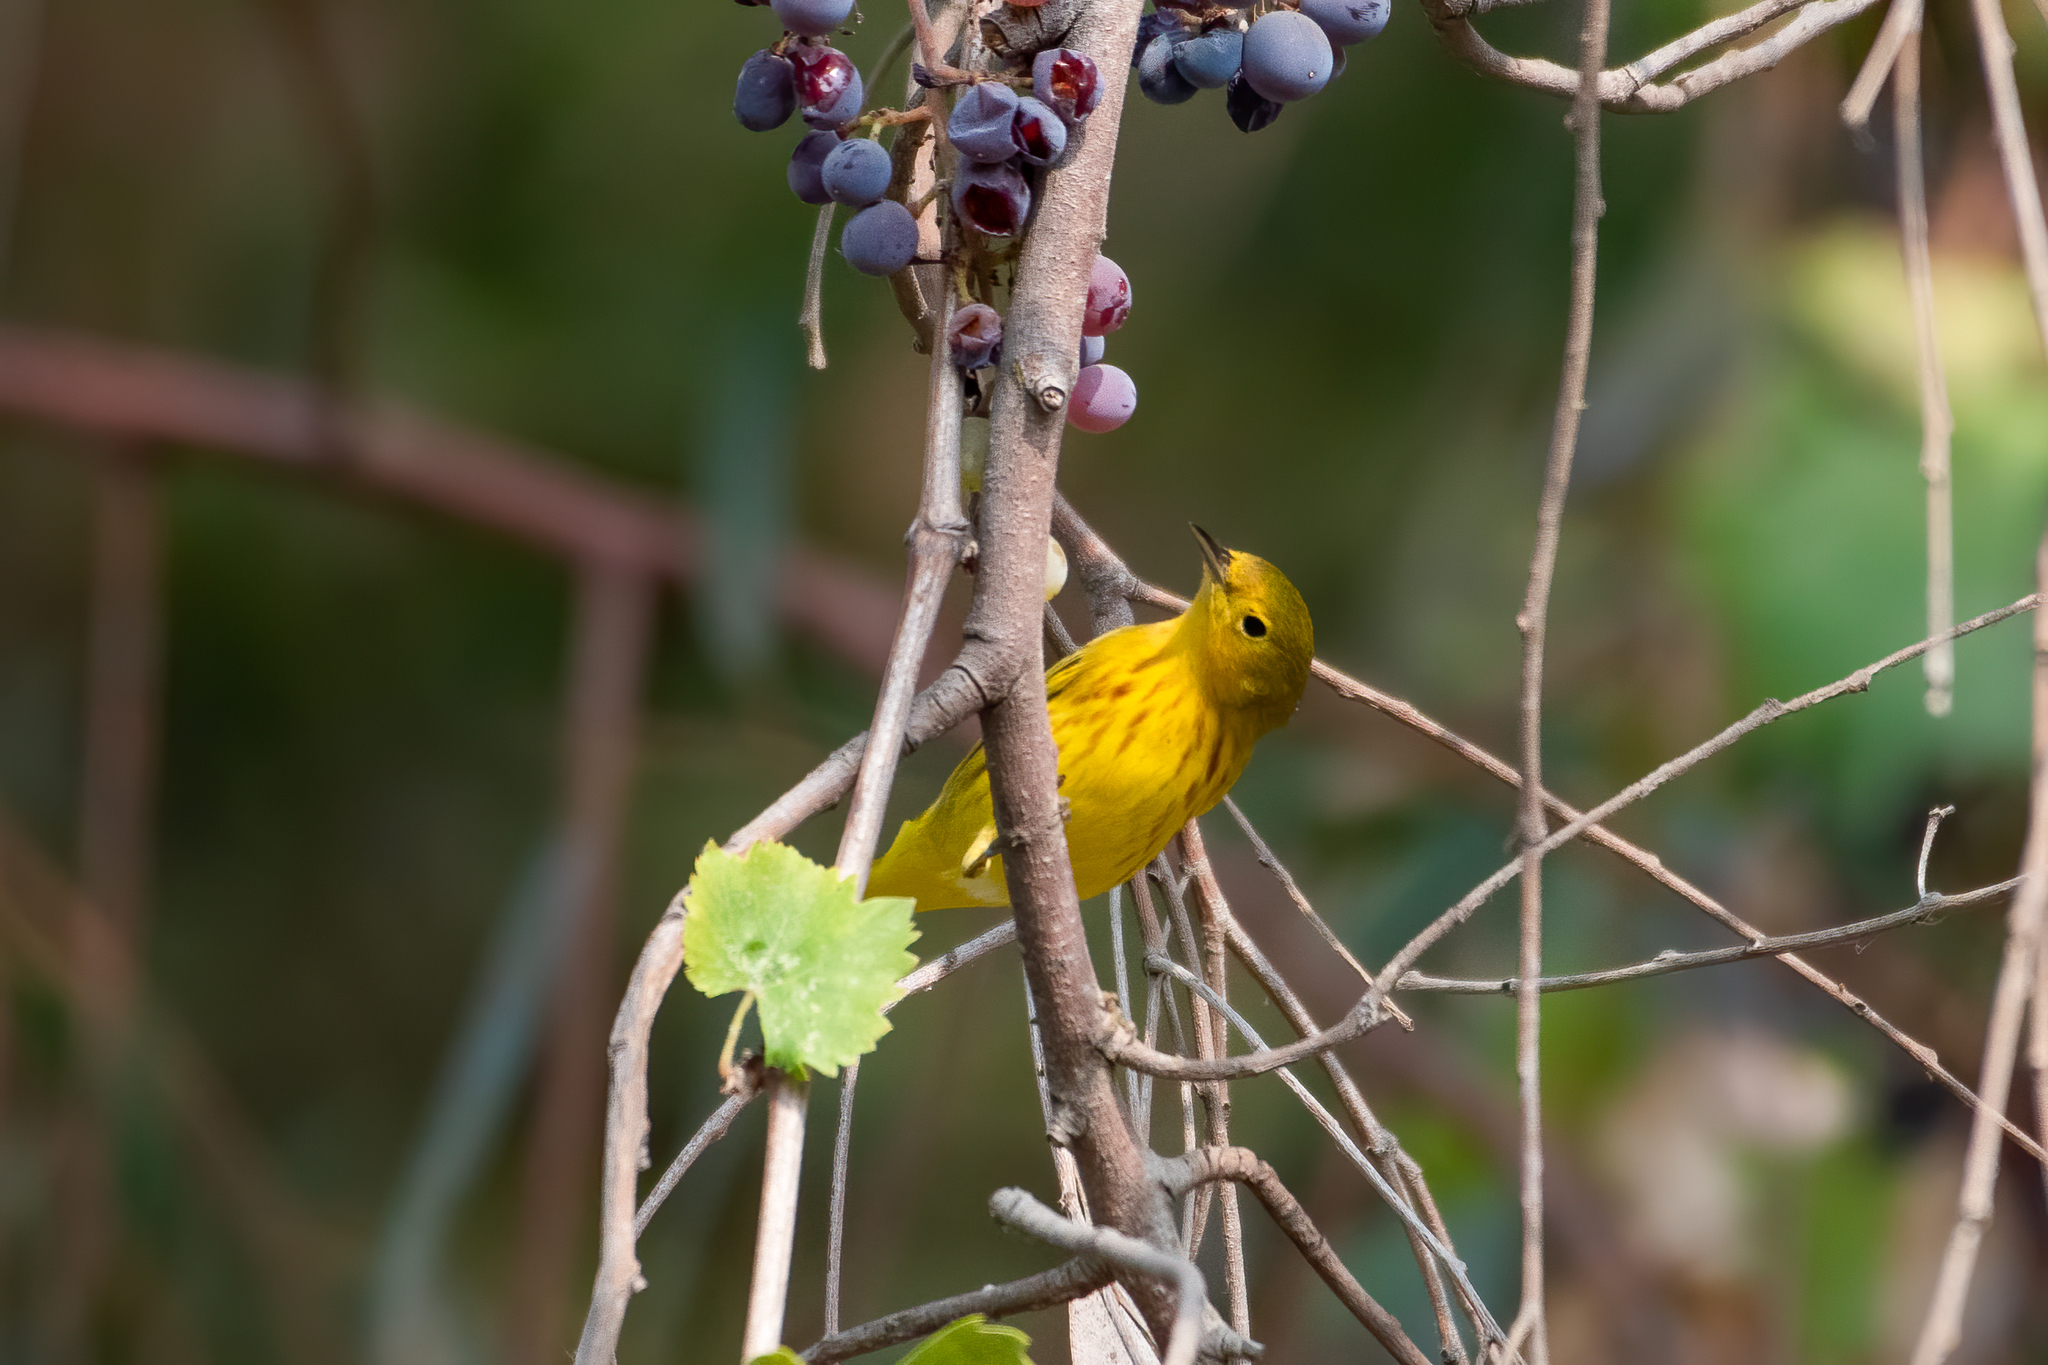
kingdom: Animalia
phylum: Chordata
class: Aves
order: Passeriformes
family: Parulidae
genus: Setophaga
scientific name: Setophaga petechia
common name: Yellow warbler
